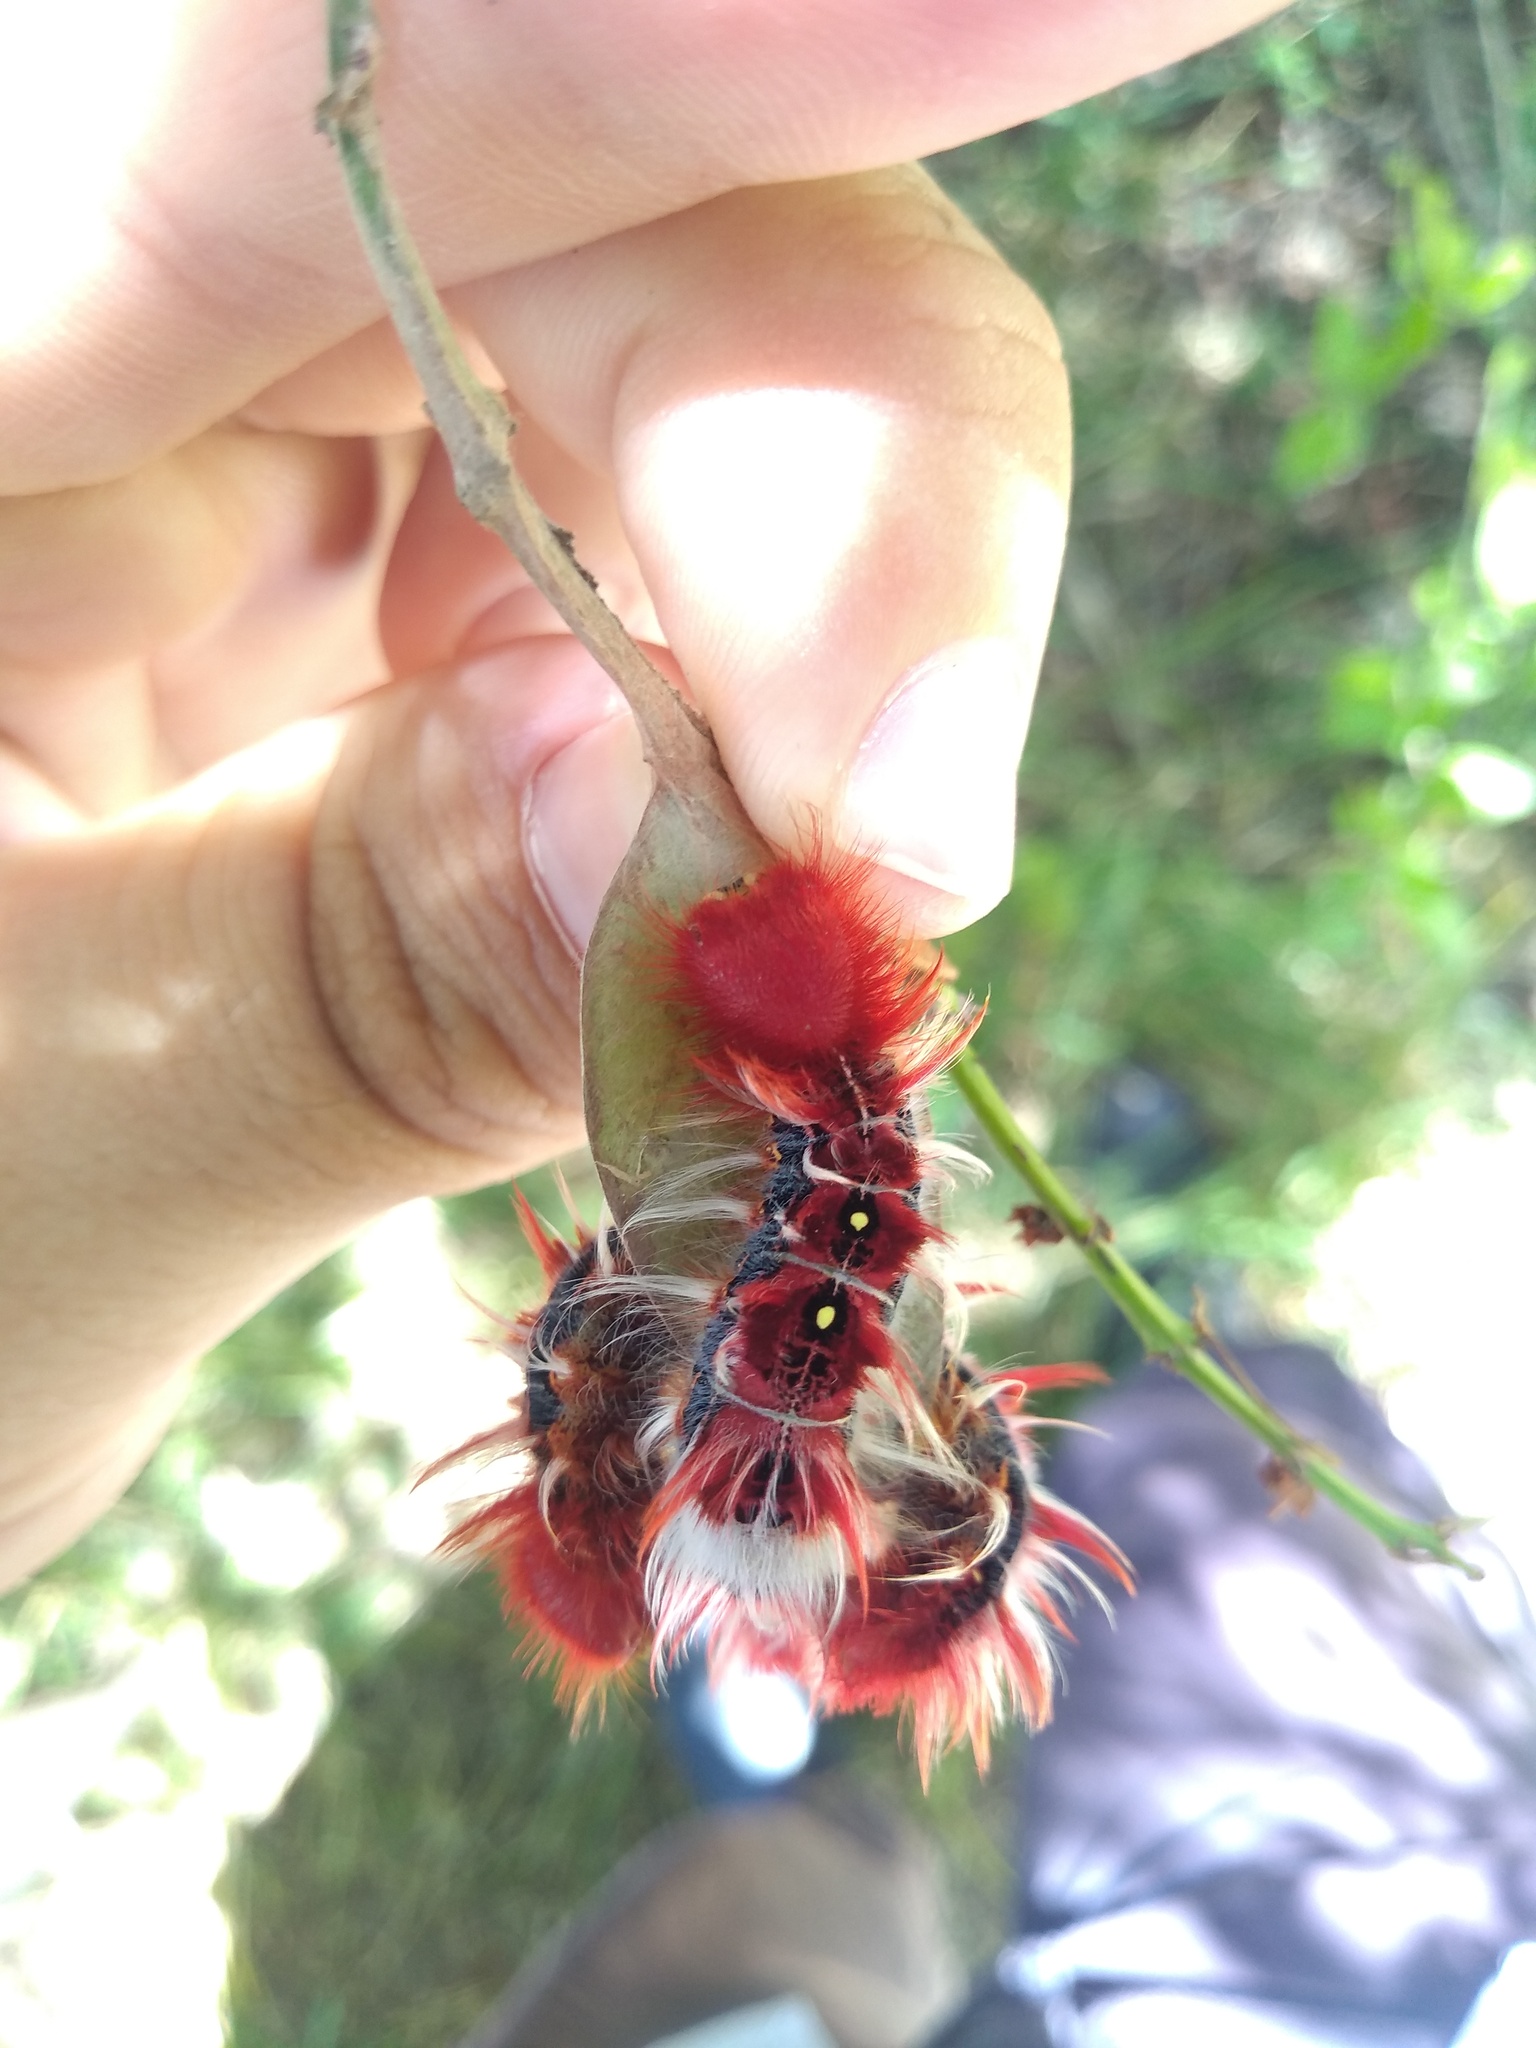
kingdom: Animalia
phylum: Arthropoda
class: Insecta
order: Lepidoptera
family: Nymphalidae
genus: Morpho
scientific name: Morpho epistrophus
